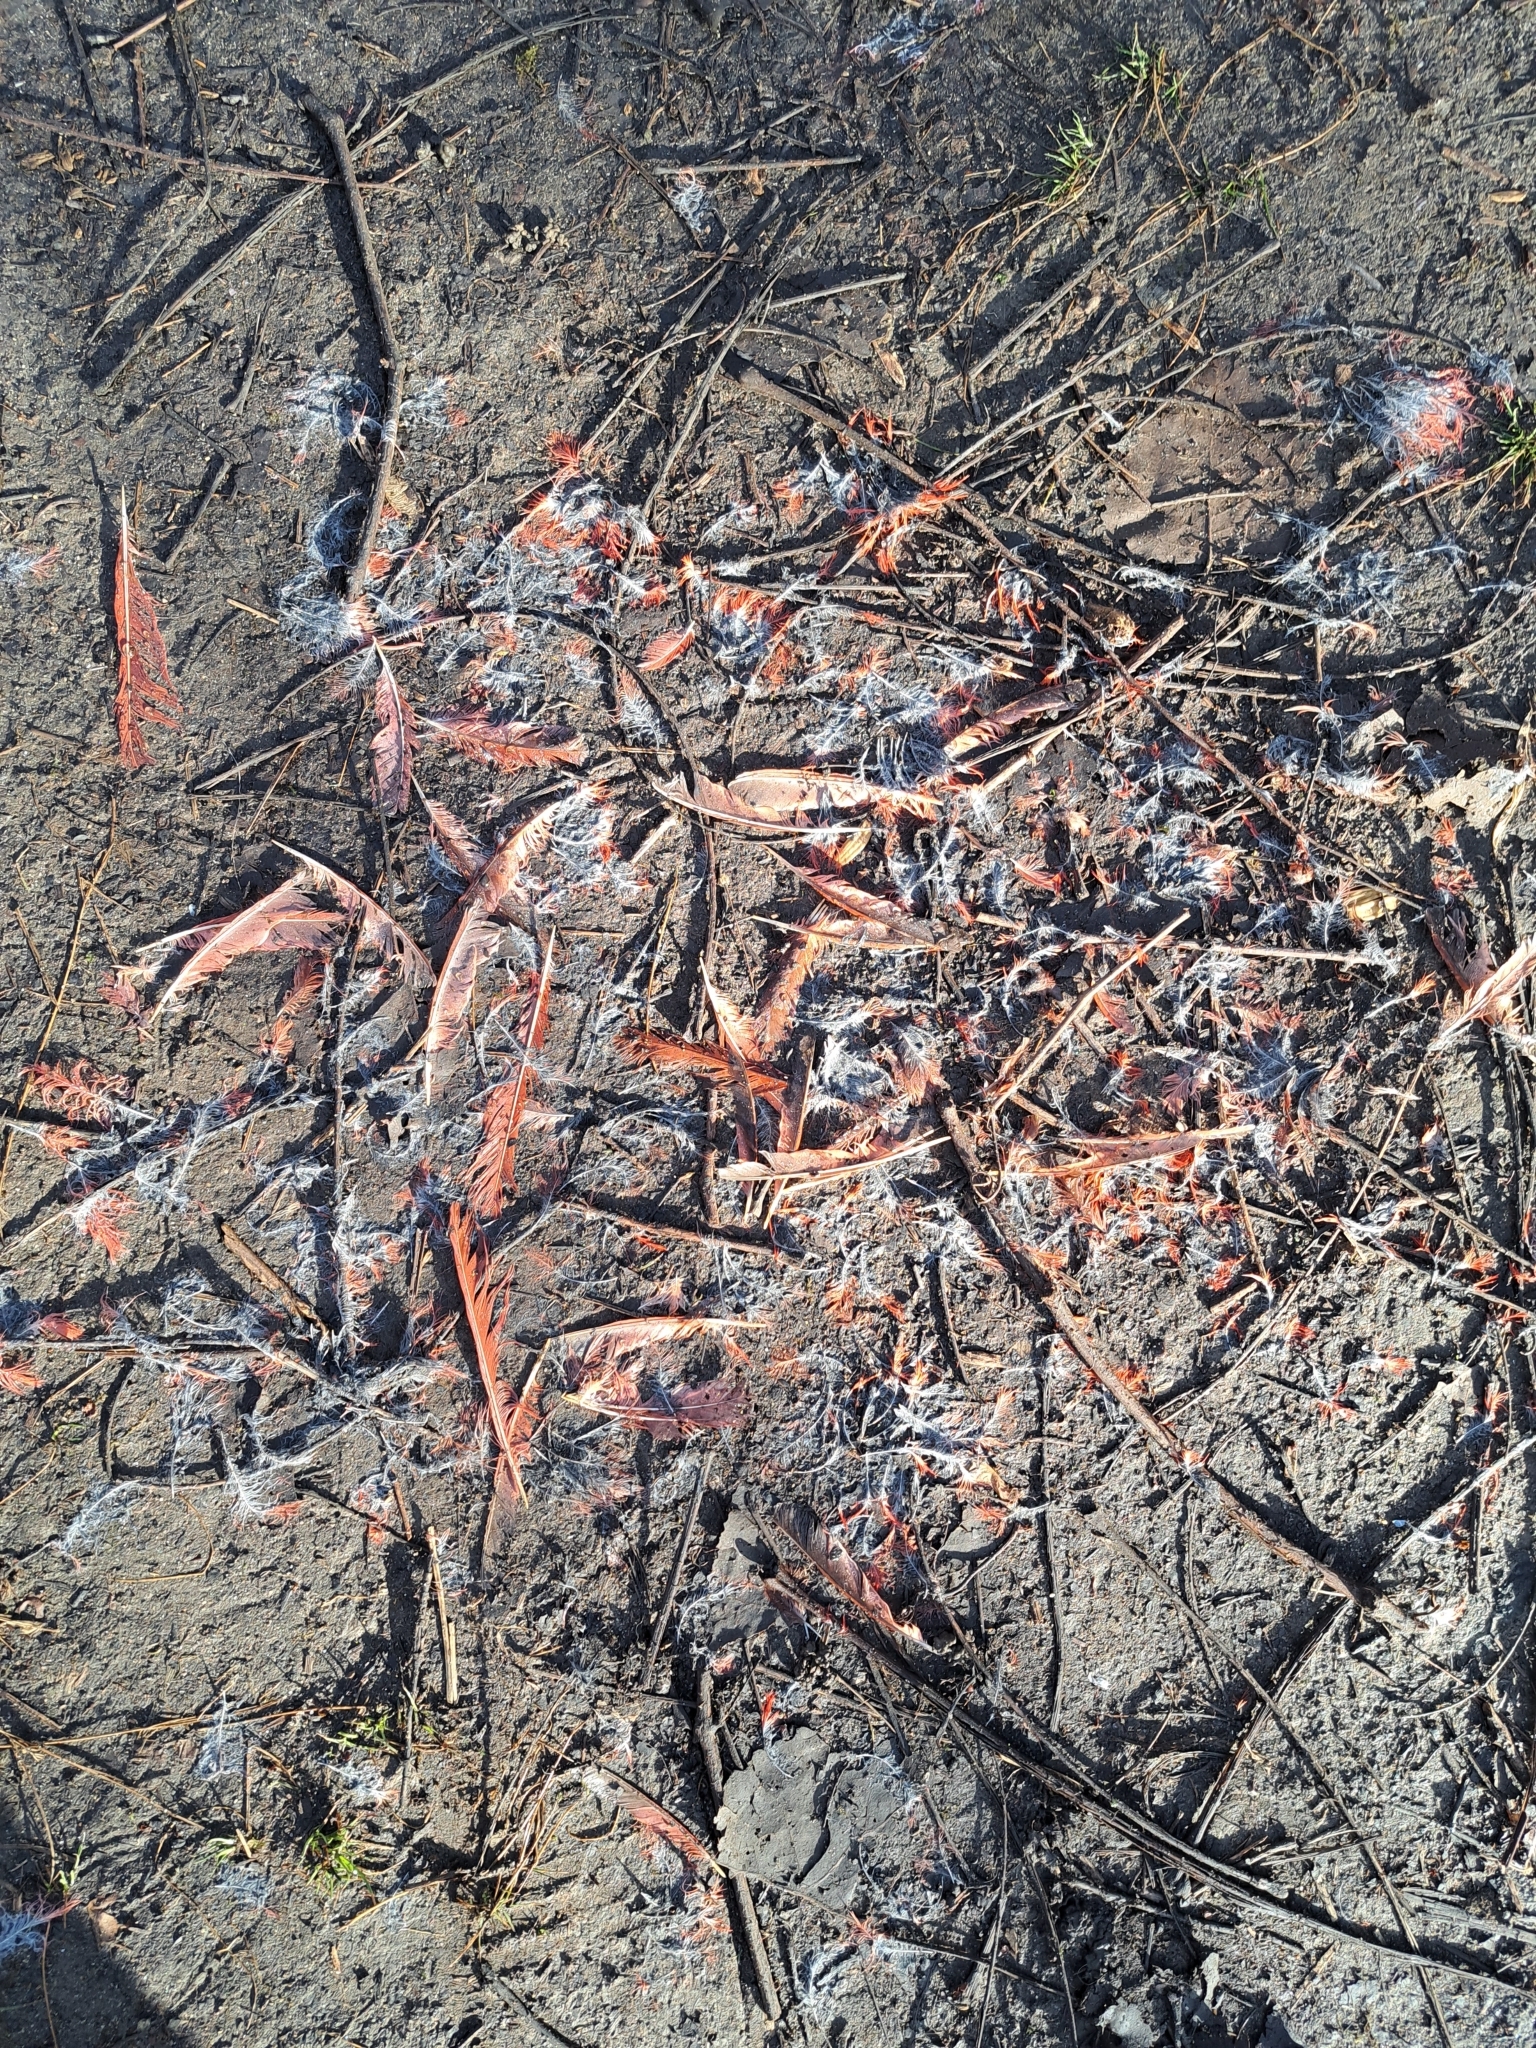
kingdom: Animalia
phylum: Chordata
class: Aves
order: Passeriformes
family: Cardinalidae
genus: Cardinalis
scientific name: Cardinalis cardinalis
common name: Northern cardinal
